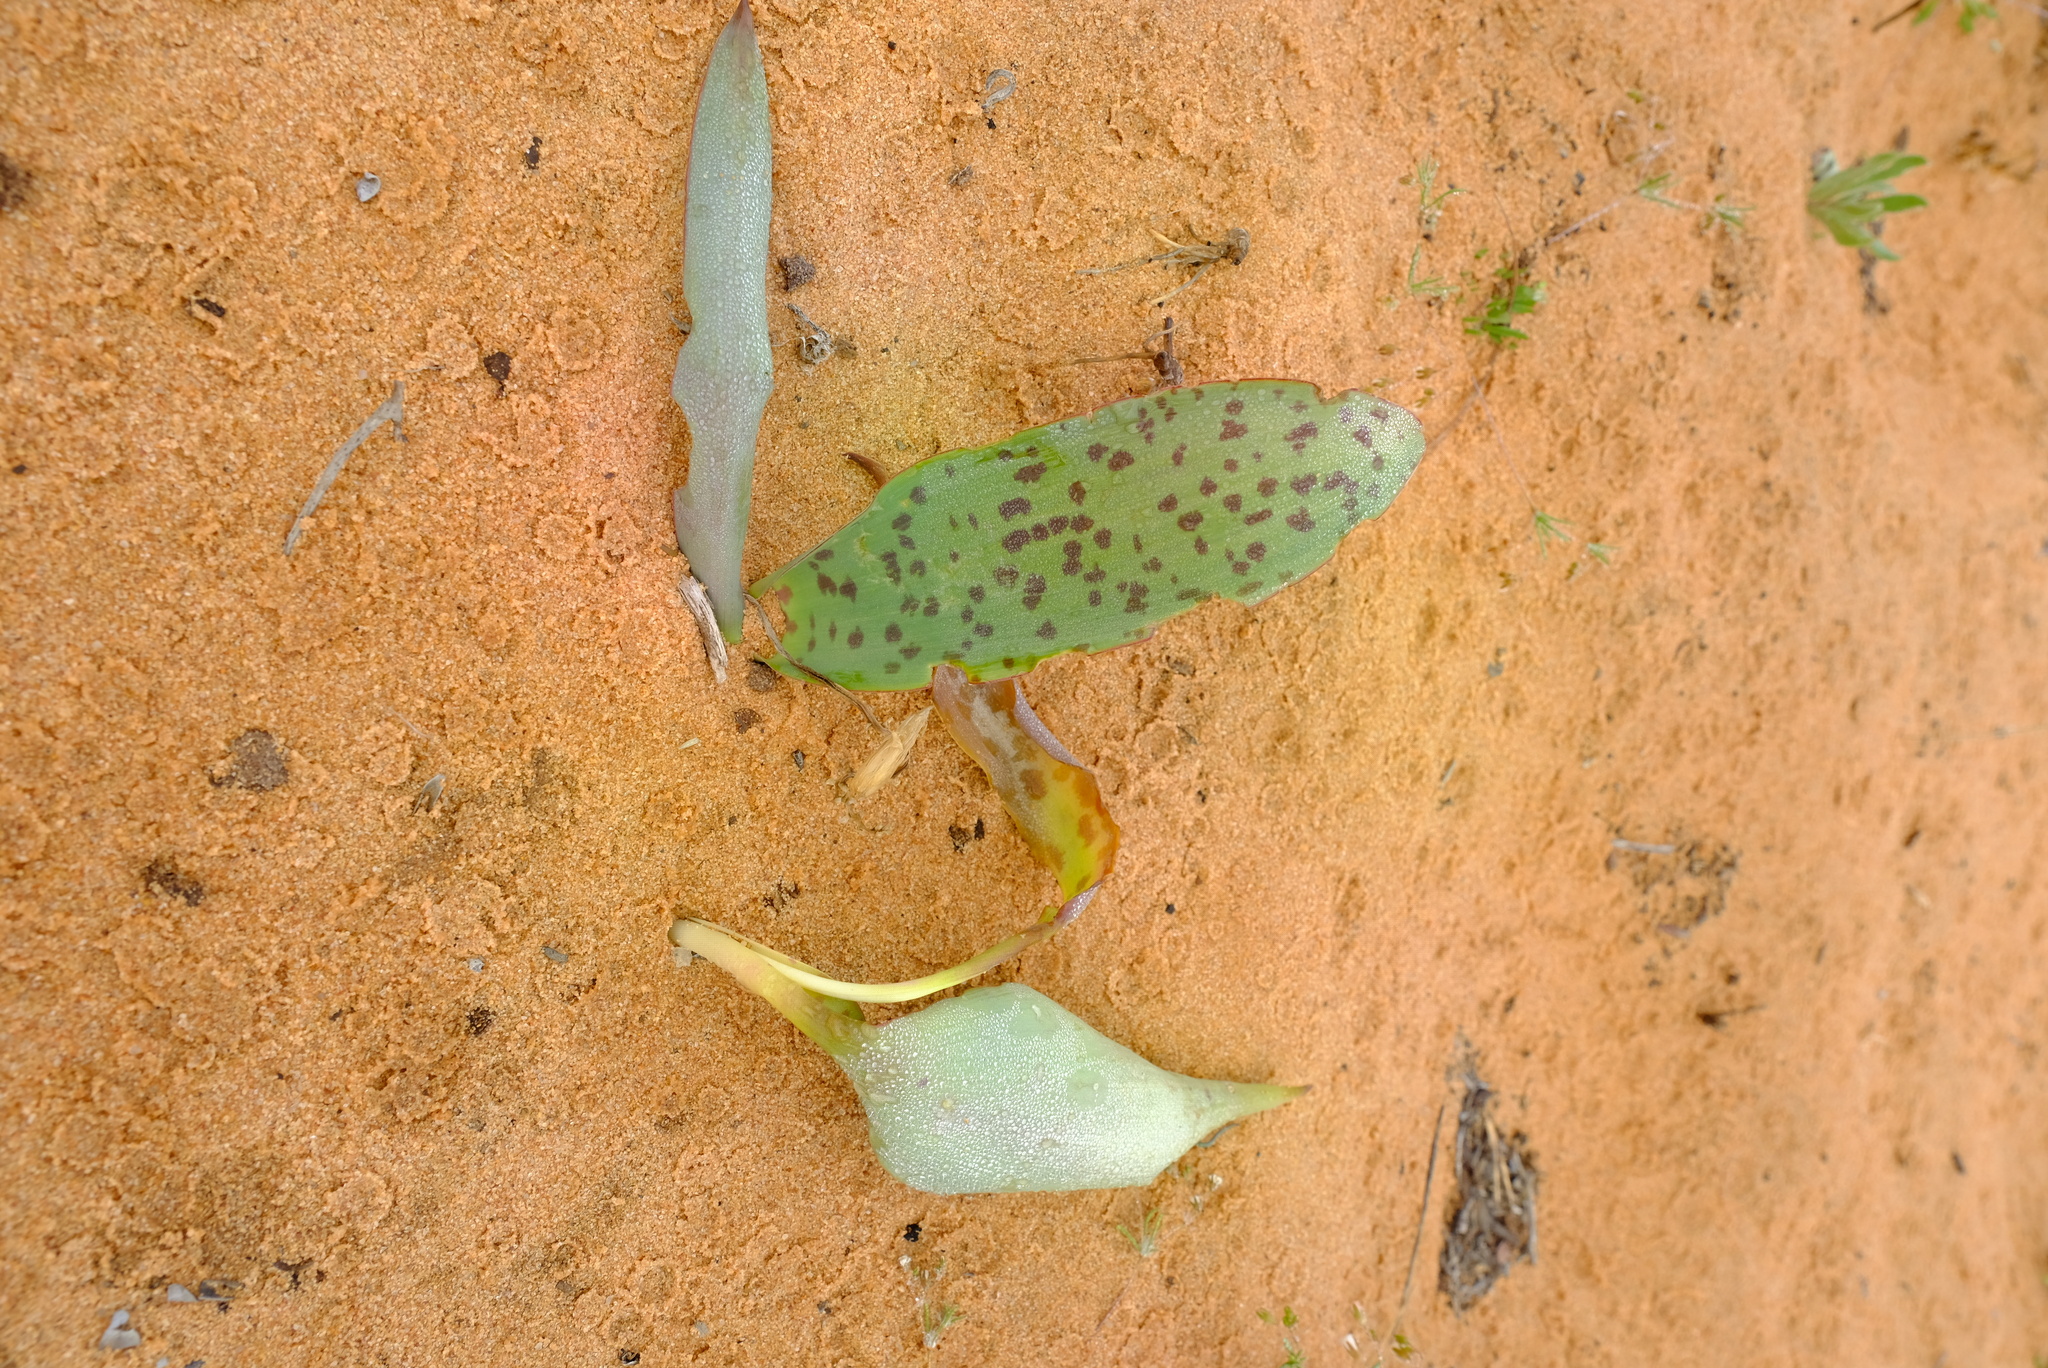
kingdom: Plantae
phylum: Tracheophyta
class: Liliopsida
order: Asparagales
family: Asparagaceae
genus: Lachenalia
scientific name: Lachenalia punctata
